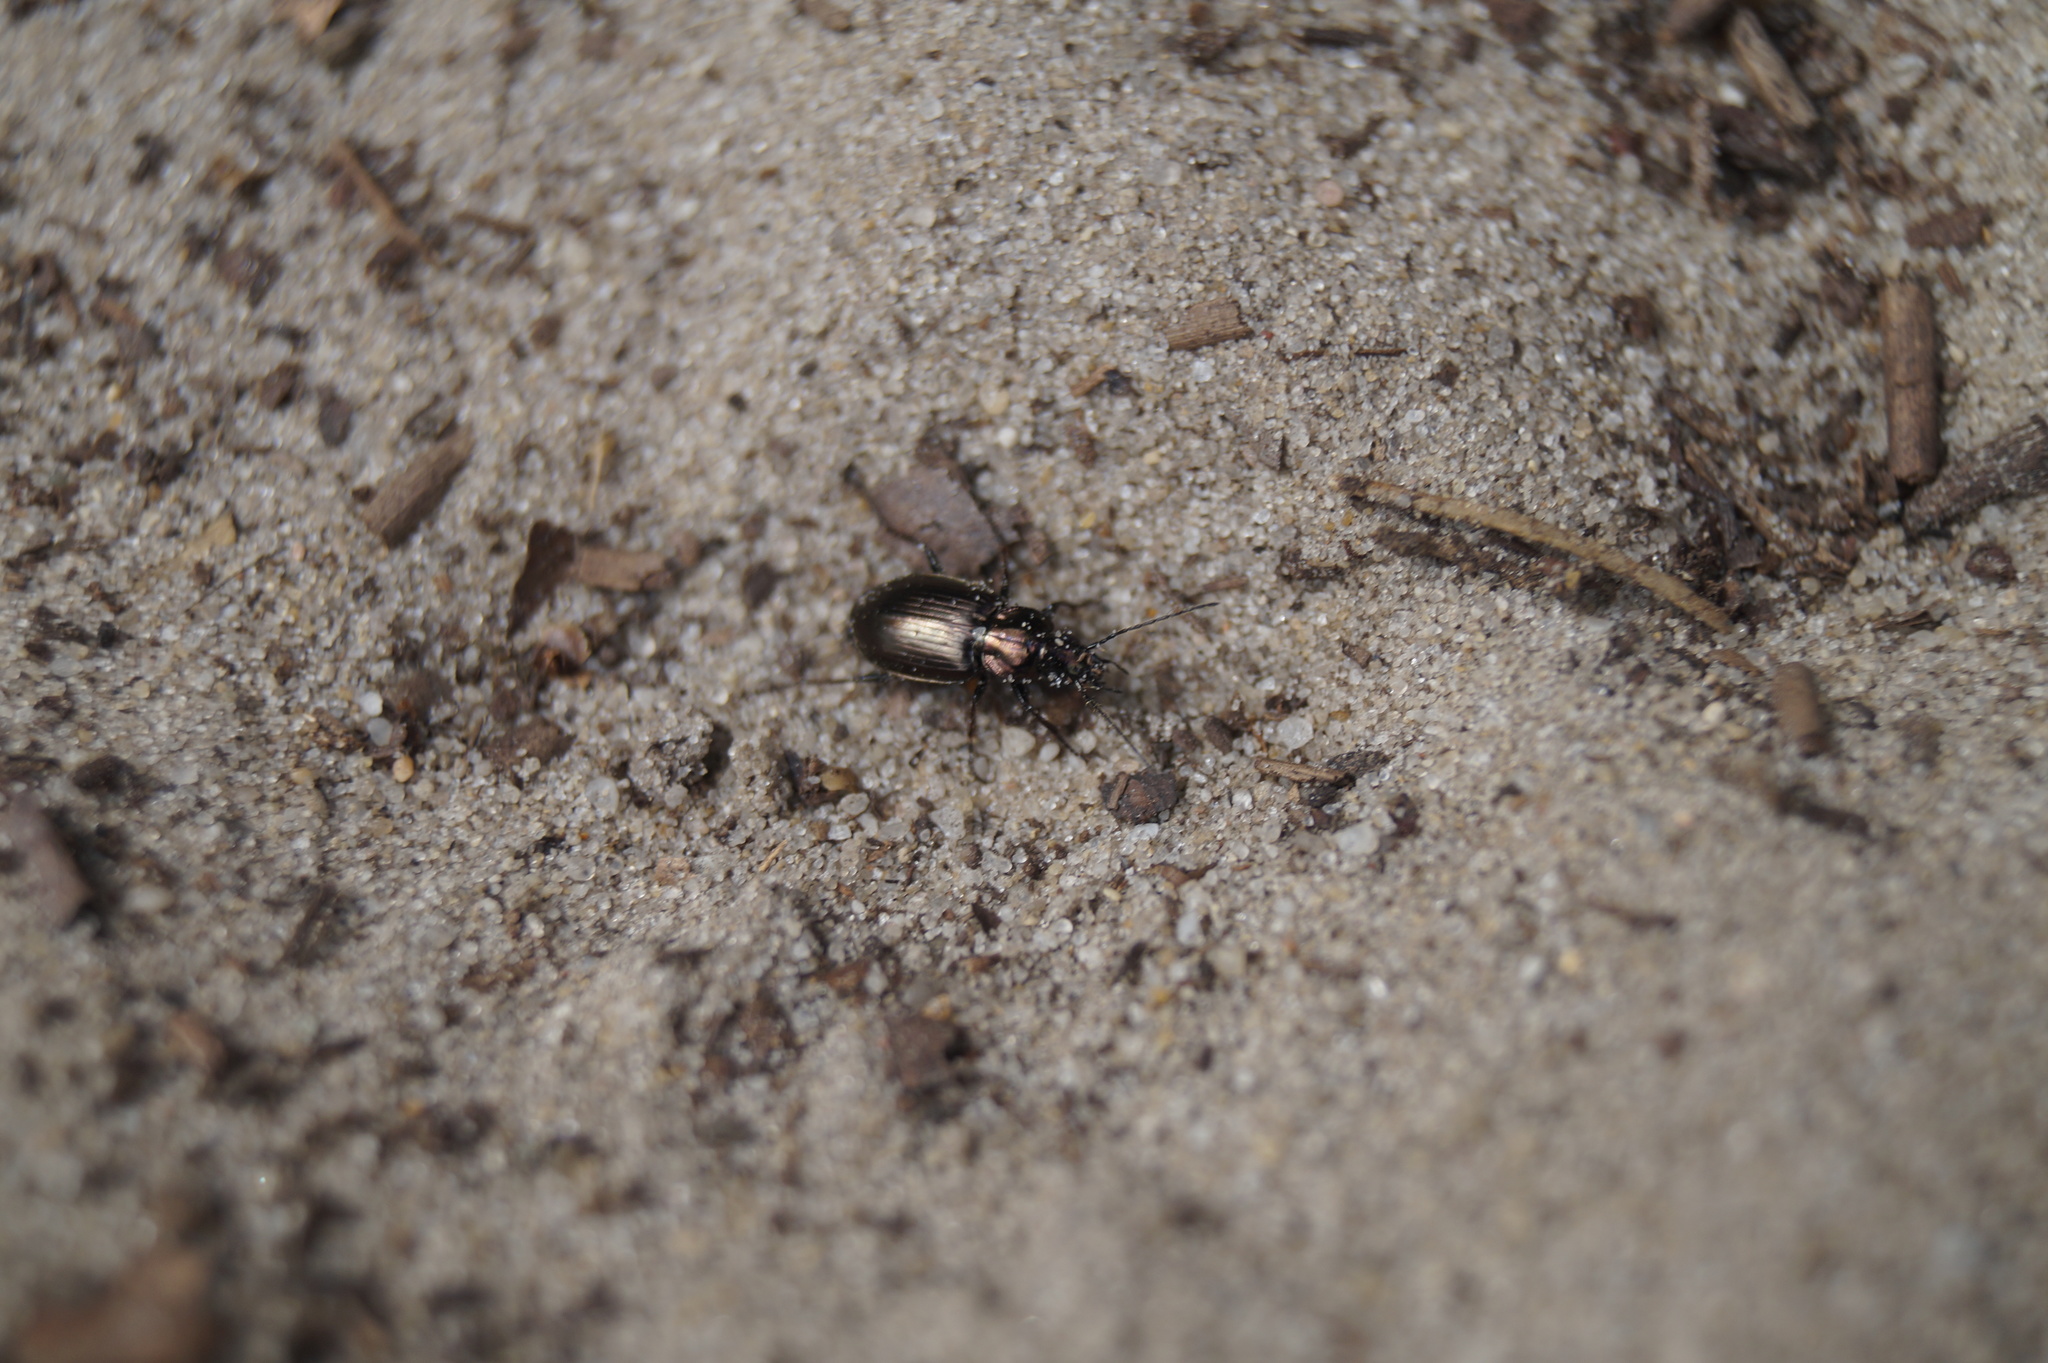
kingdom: Animalia
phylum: Arthropoda
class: Insecta
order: Coleoptera
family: Carabidae
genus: Agonum
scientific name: Agonum muelleri
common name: Müller's harp ground beetle
